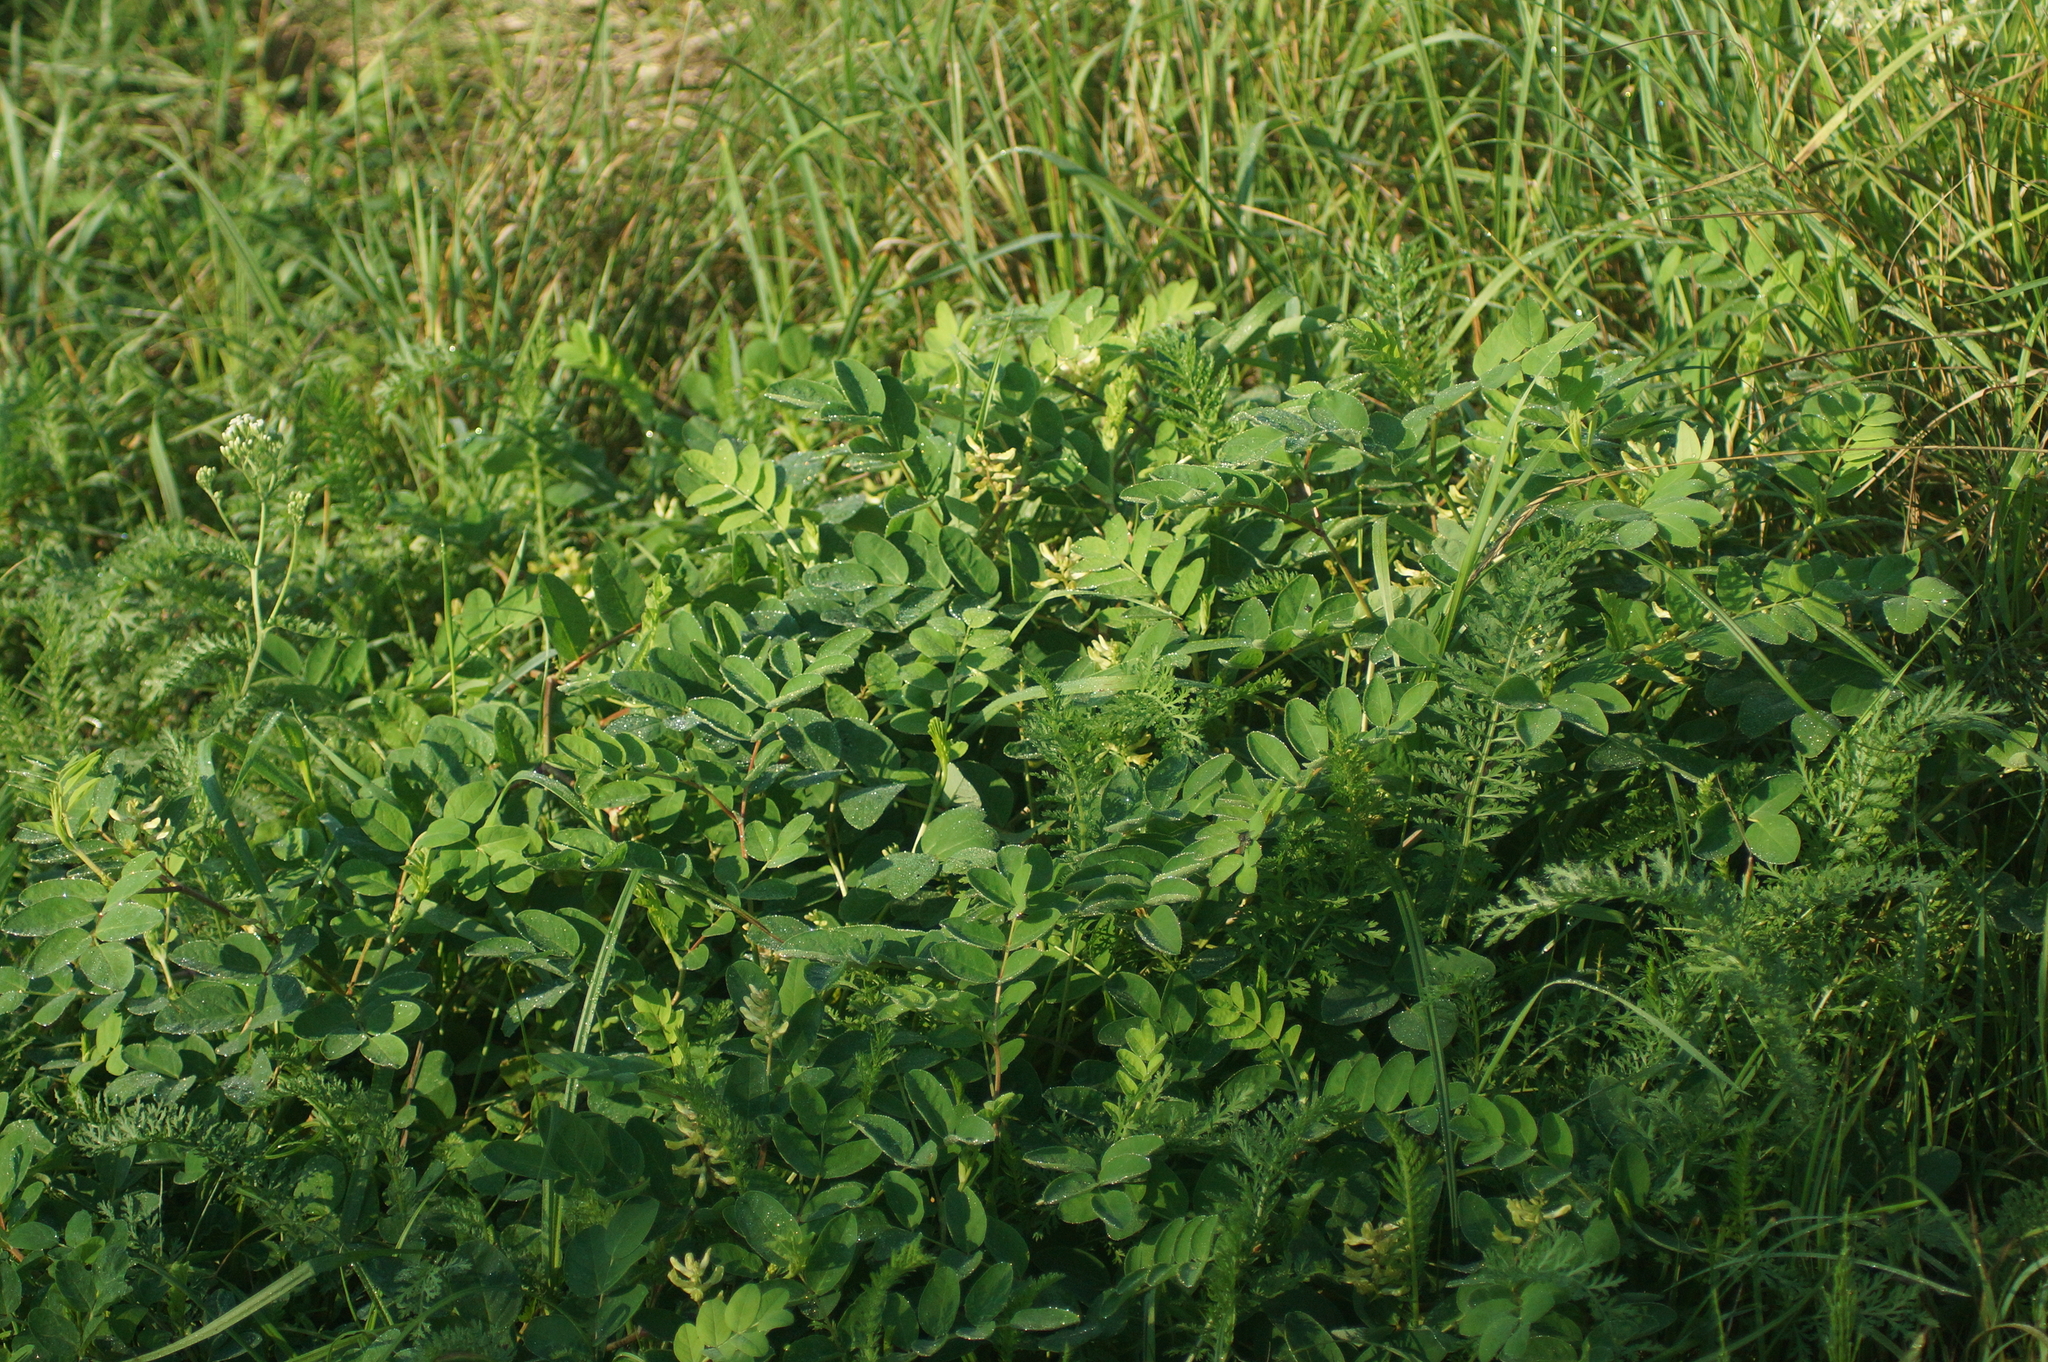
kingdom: Plantae
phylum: Tracheophyta
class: Magnoliopsida
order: Fabales
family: Fabaceae
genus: Astragalus
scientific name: Astragalus glycyphyllos
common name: Wild liquorice
